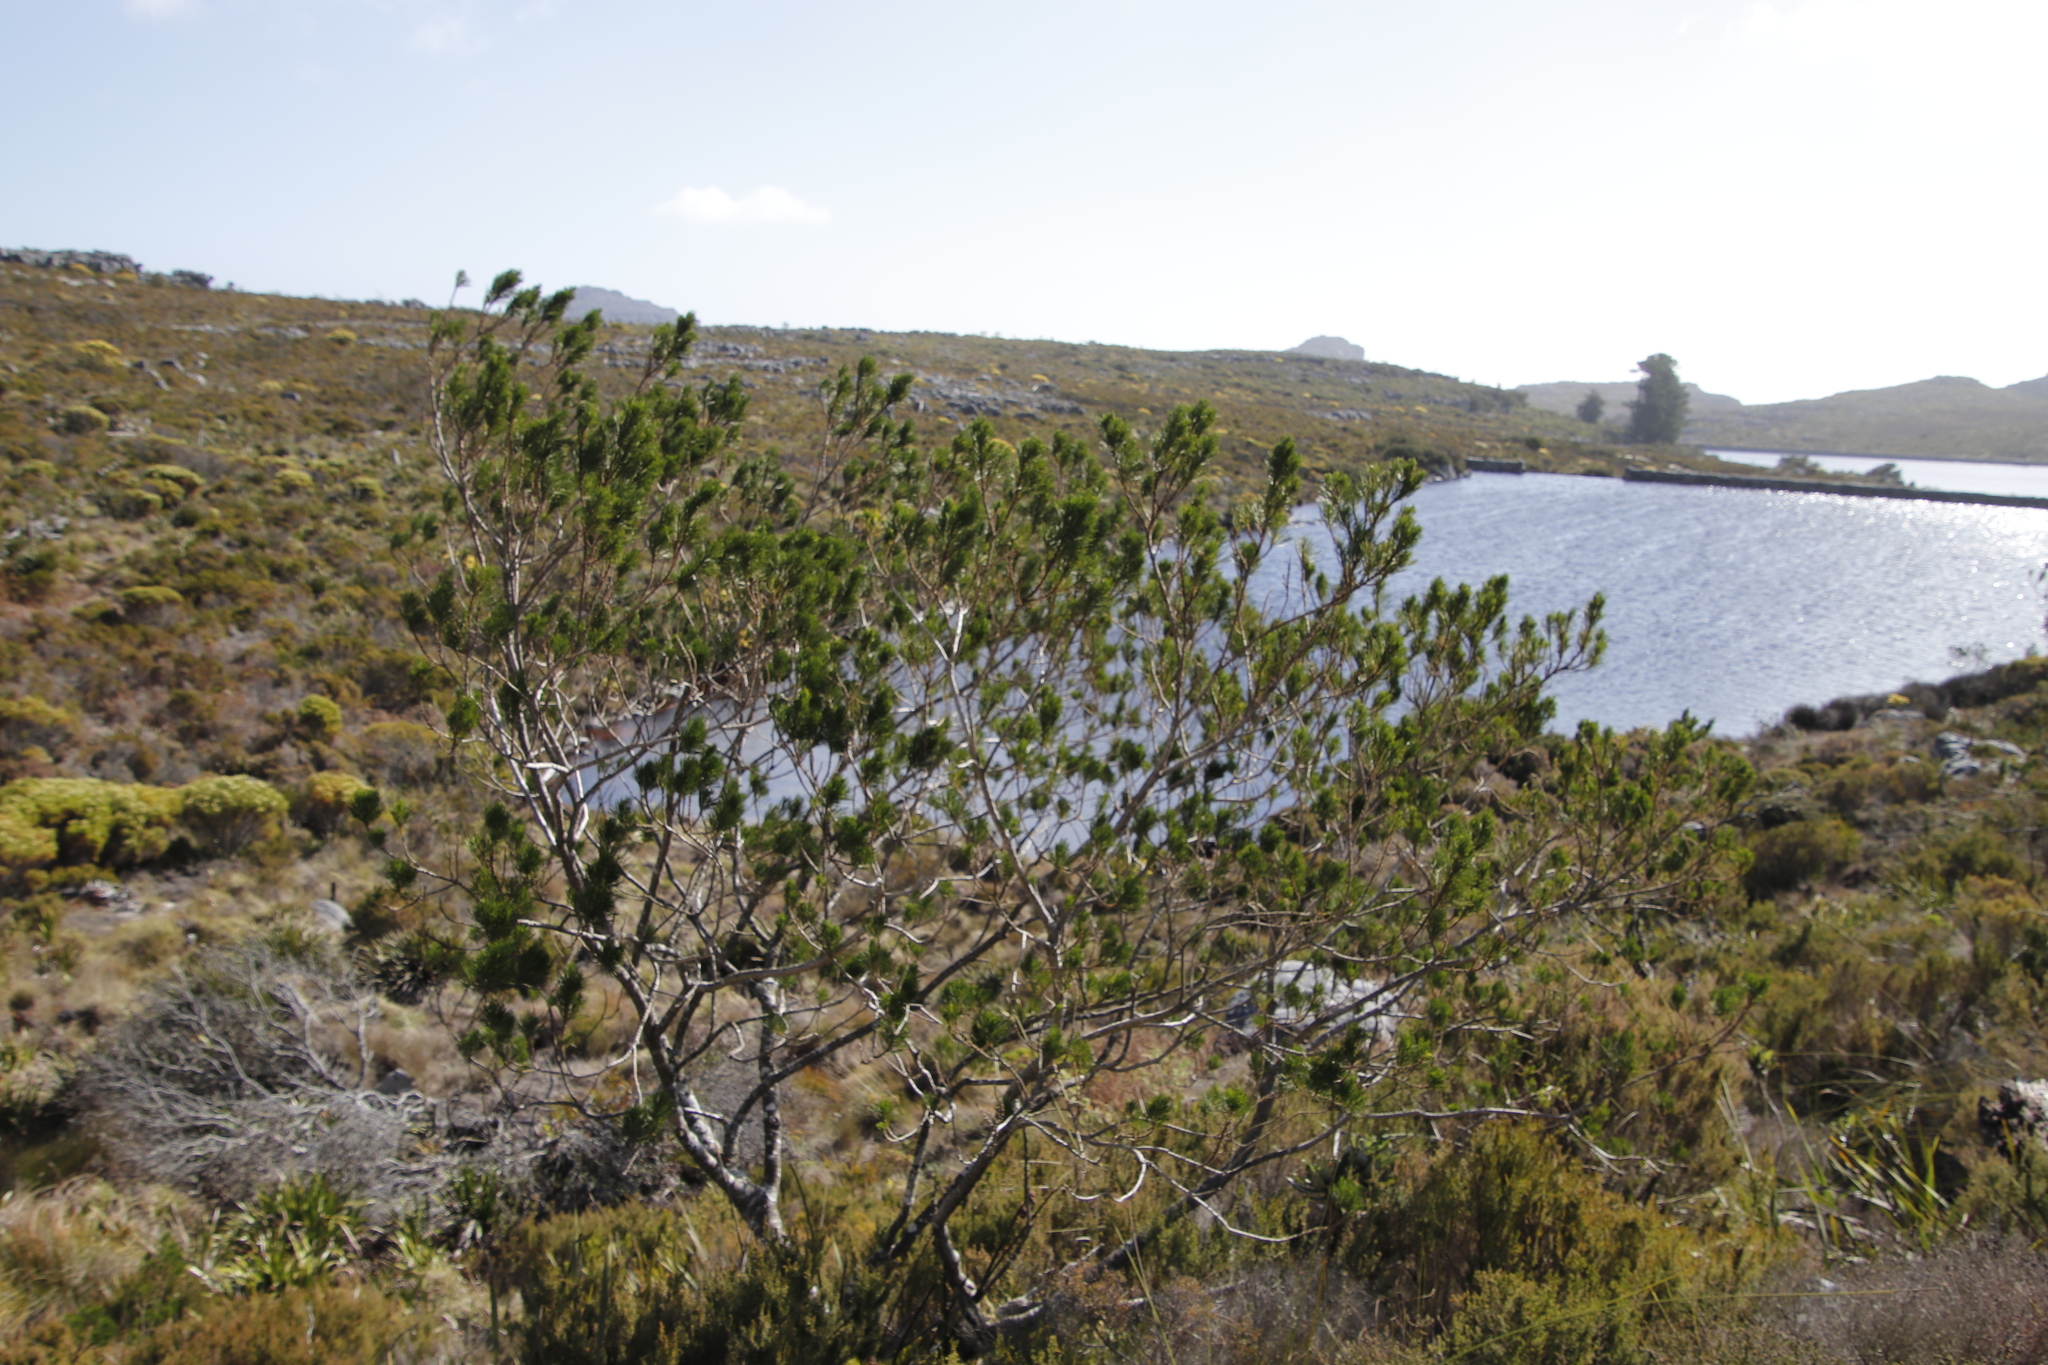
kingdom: Plantae
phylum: Tracheophyta
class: Magnoliopsida
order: Fabales
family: Fabaceae
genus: Psoralea
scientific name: Psoralea pinnata
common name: African scurfpea
